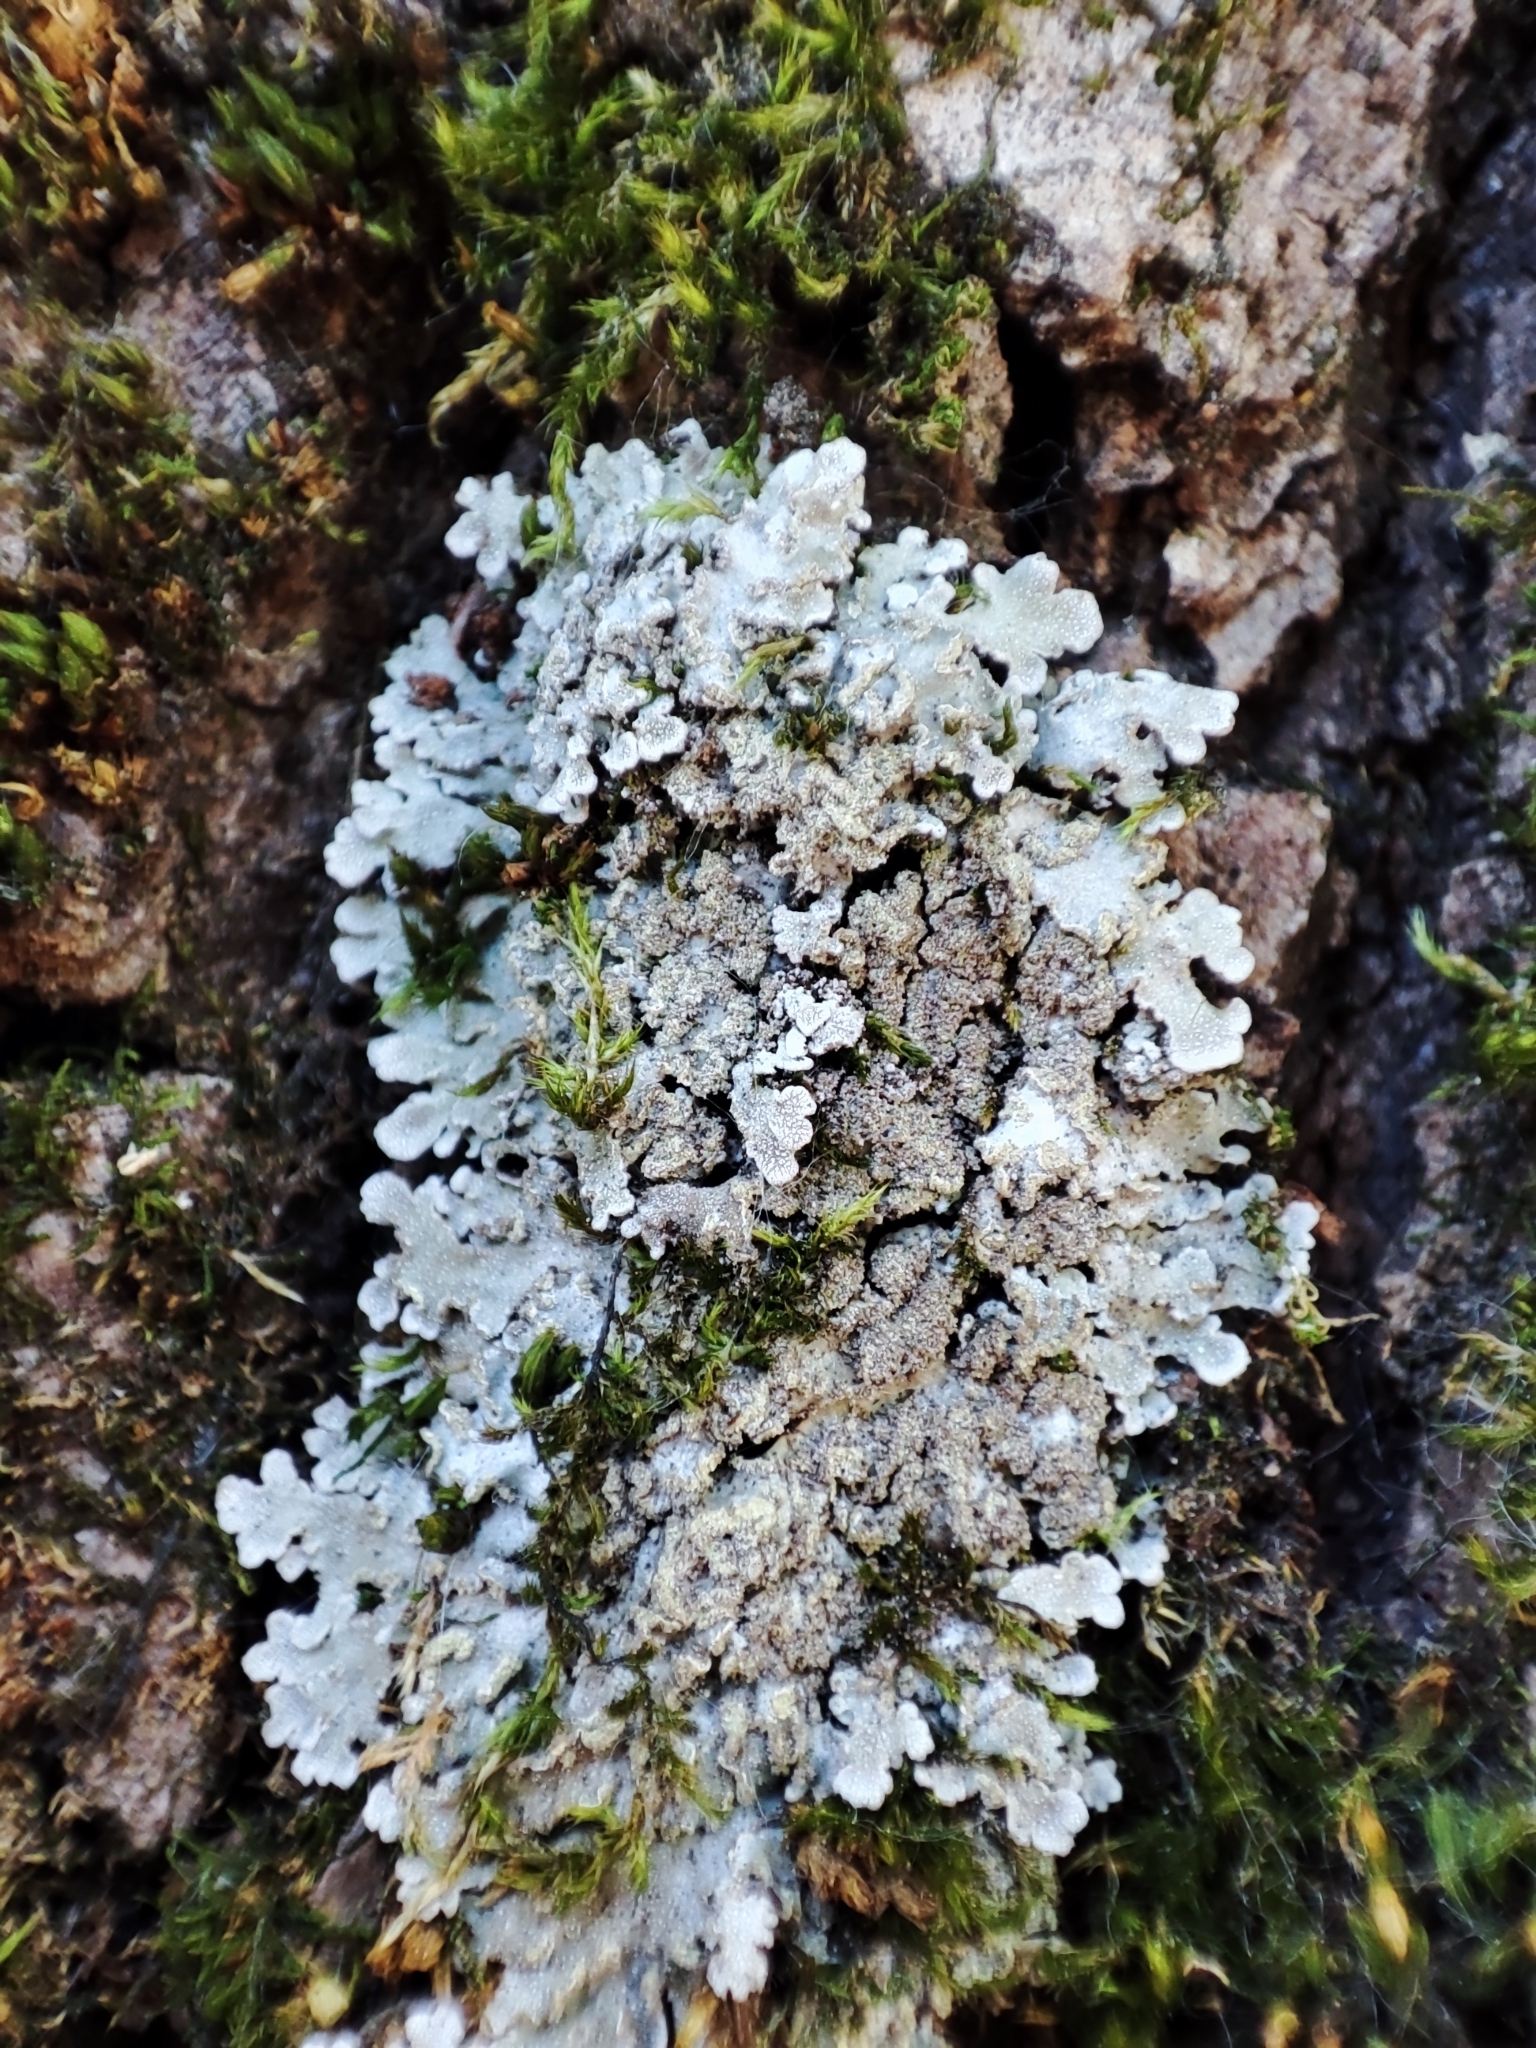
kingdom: Fungi
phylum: Ascomycota
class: Lecanoromycetes
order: Caliciales
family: Physciaceae
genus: Physconia
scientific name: Physconia enteroxantha
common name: Yellow-edged frost lichen
